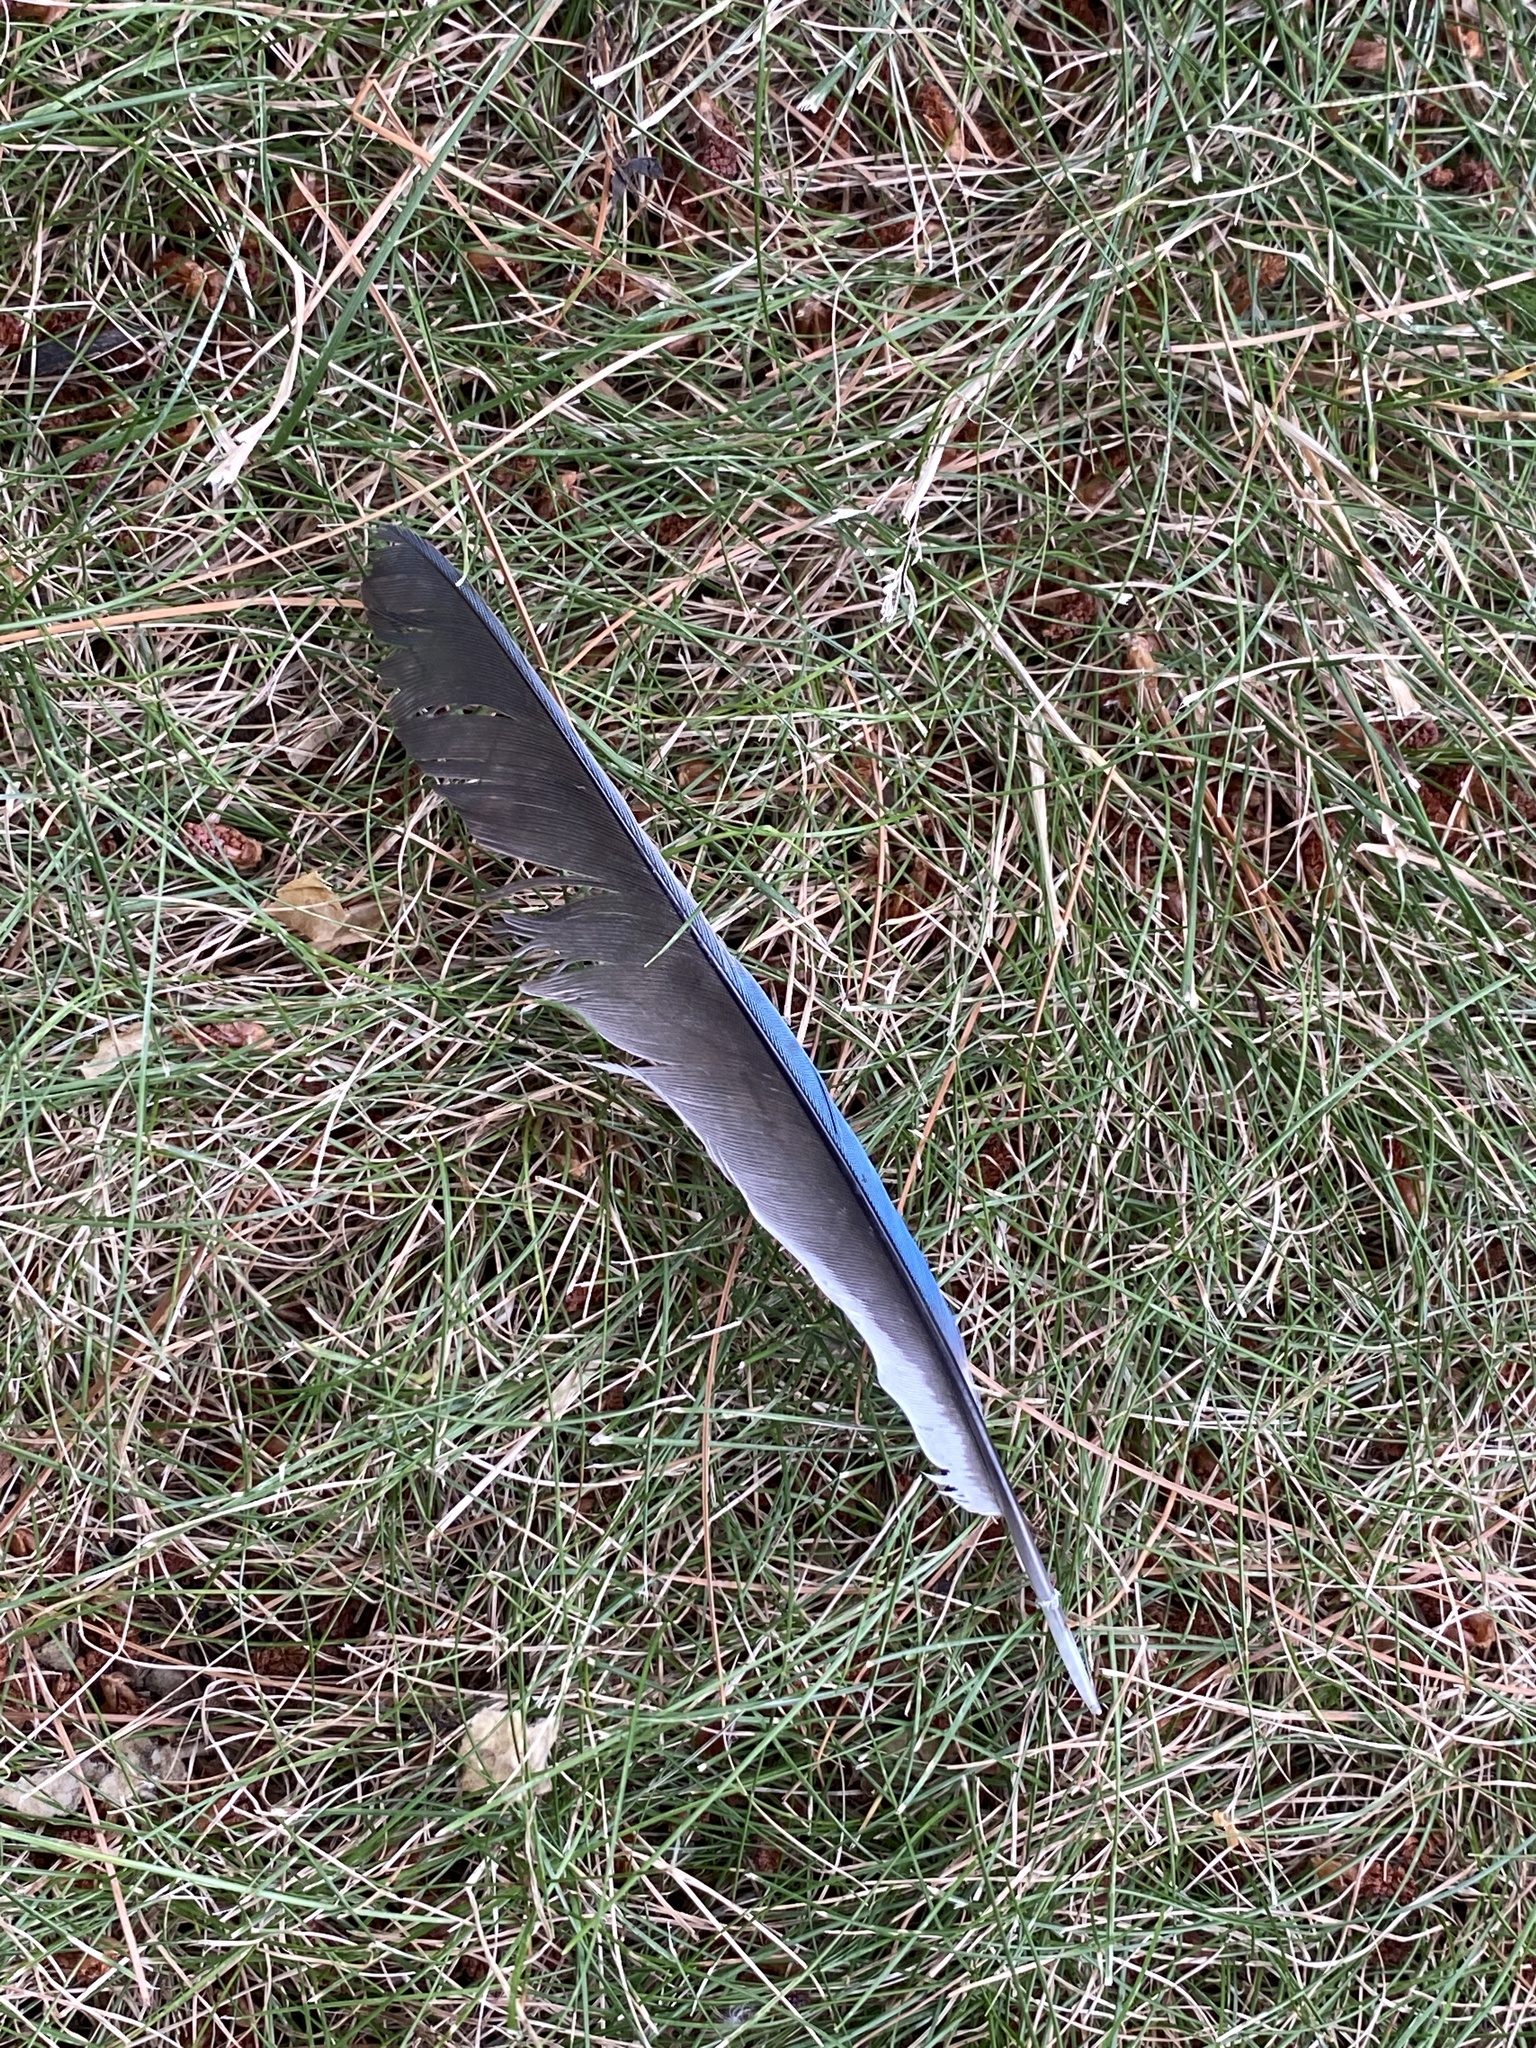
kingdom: Animalia
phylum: Chordata
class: Aves
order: Passeriformes
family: Corvidae
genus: Cyanocitta
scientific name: Cyanocitta cristata
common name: Blue jay
